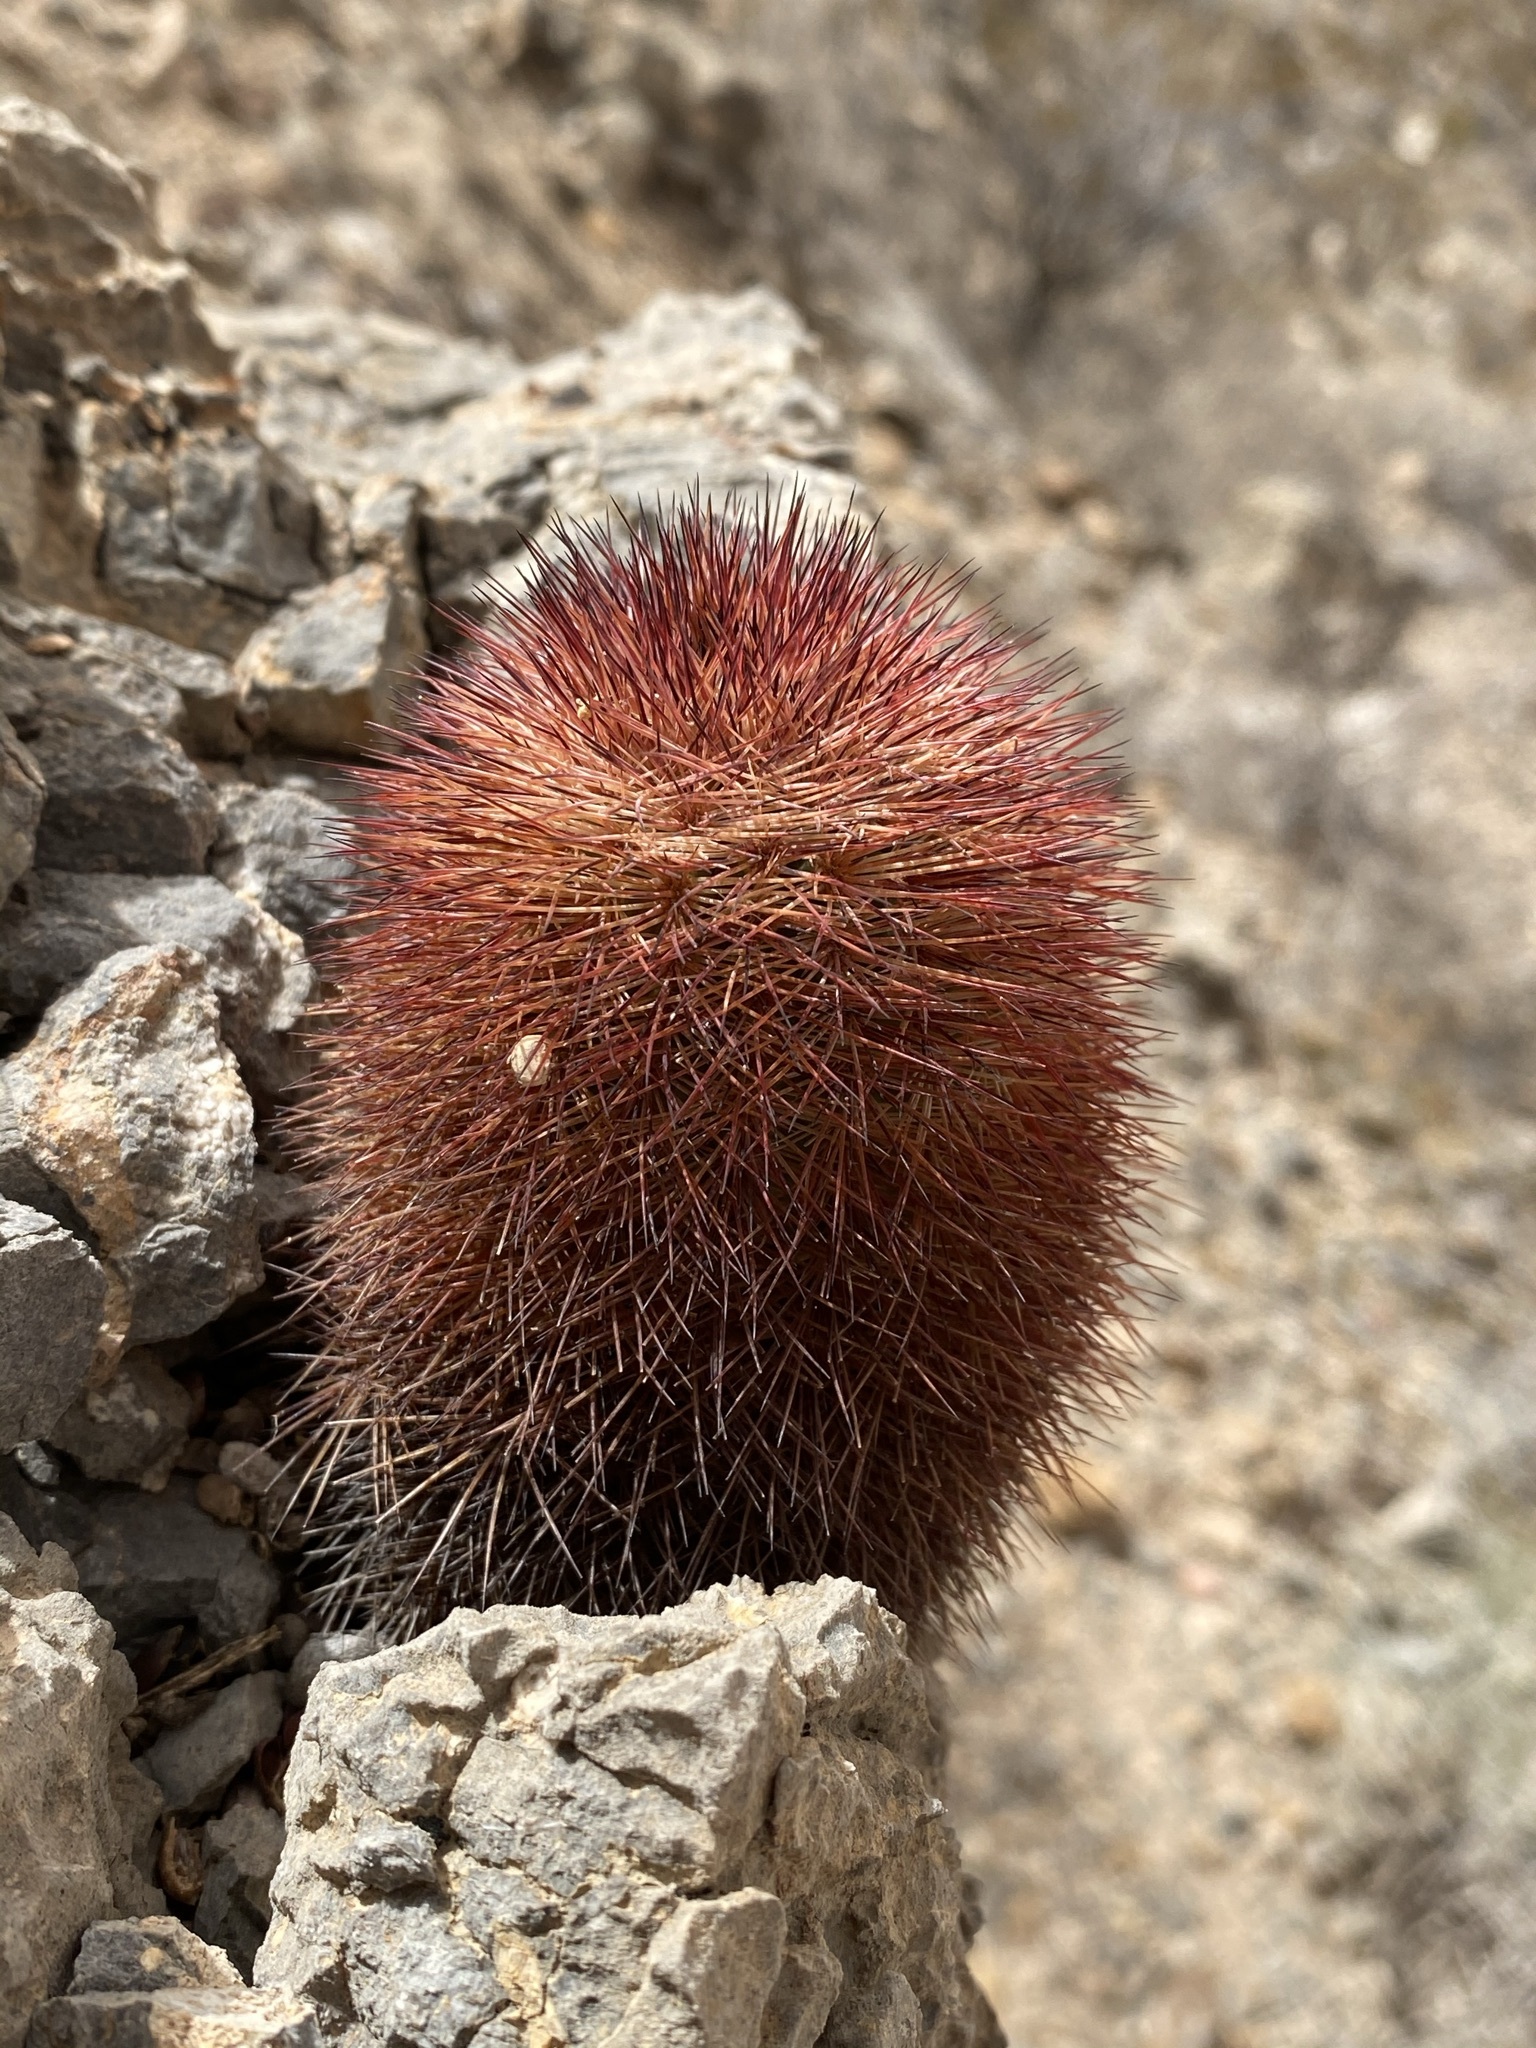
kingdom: Plantae
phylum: Tracheophyta
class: Magnoliopsida
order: Caryophyllales
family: Cactaceae
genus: Echinocereus
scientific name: Echinocereus dasyacanthus
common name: Spiny hedgehog cactus
